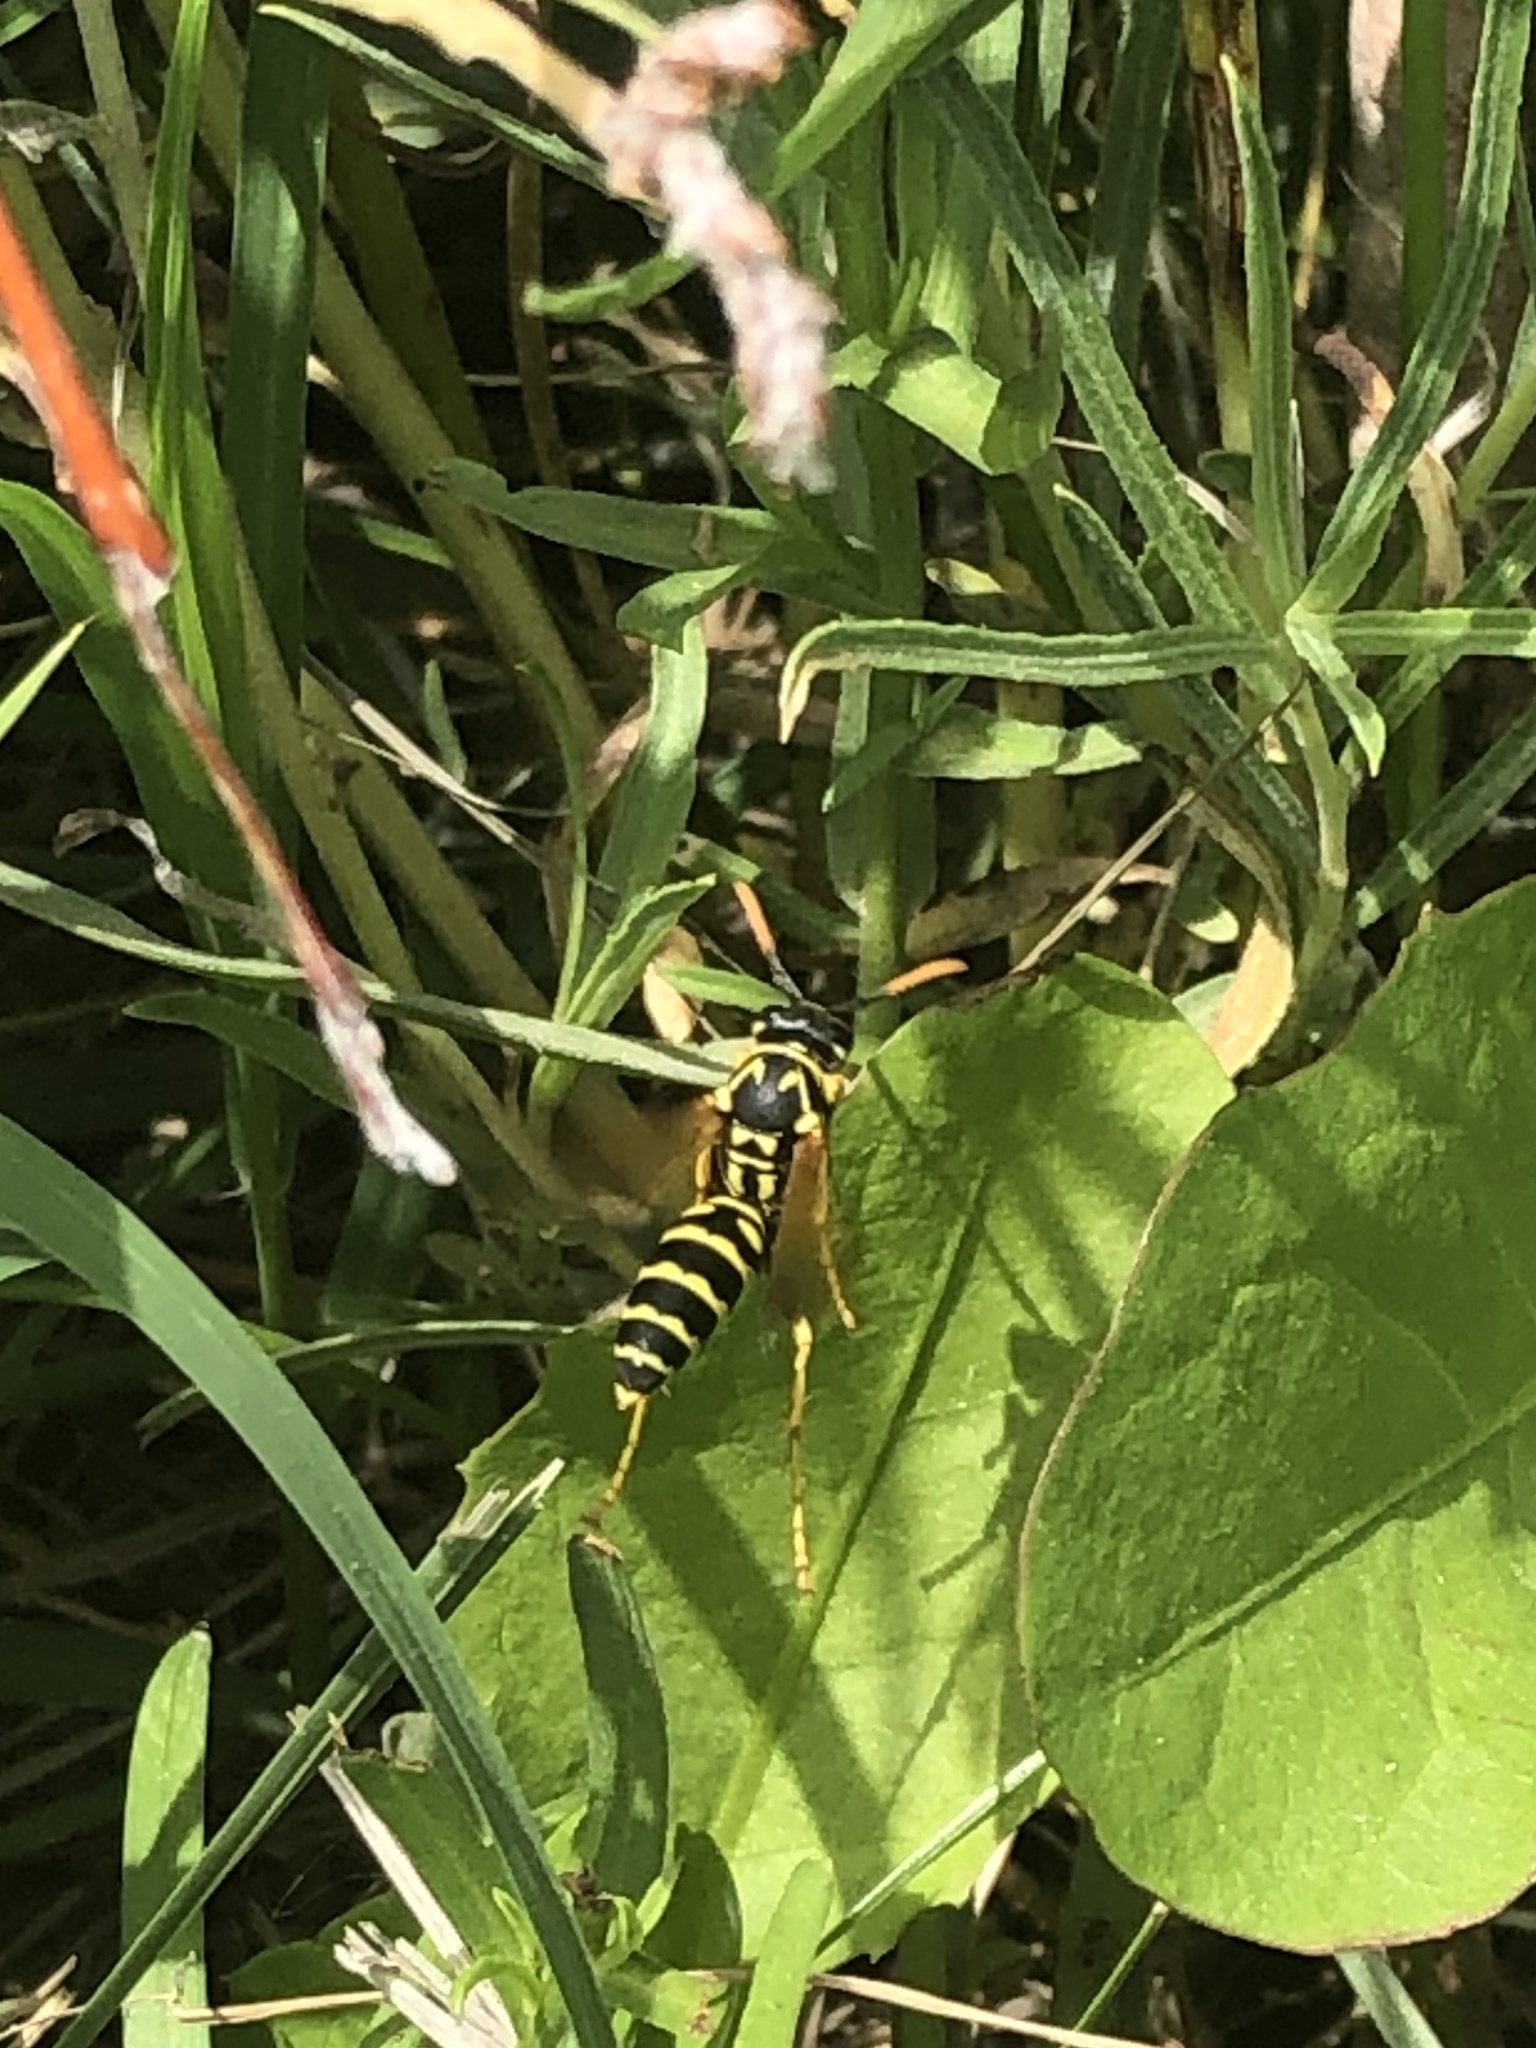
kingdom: Animalia
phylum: Arthropoda
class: Insecta
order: Hymenoptera
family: Eumenidae
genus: Polistes
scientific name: Polistes dominula
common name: Paper wasp
